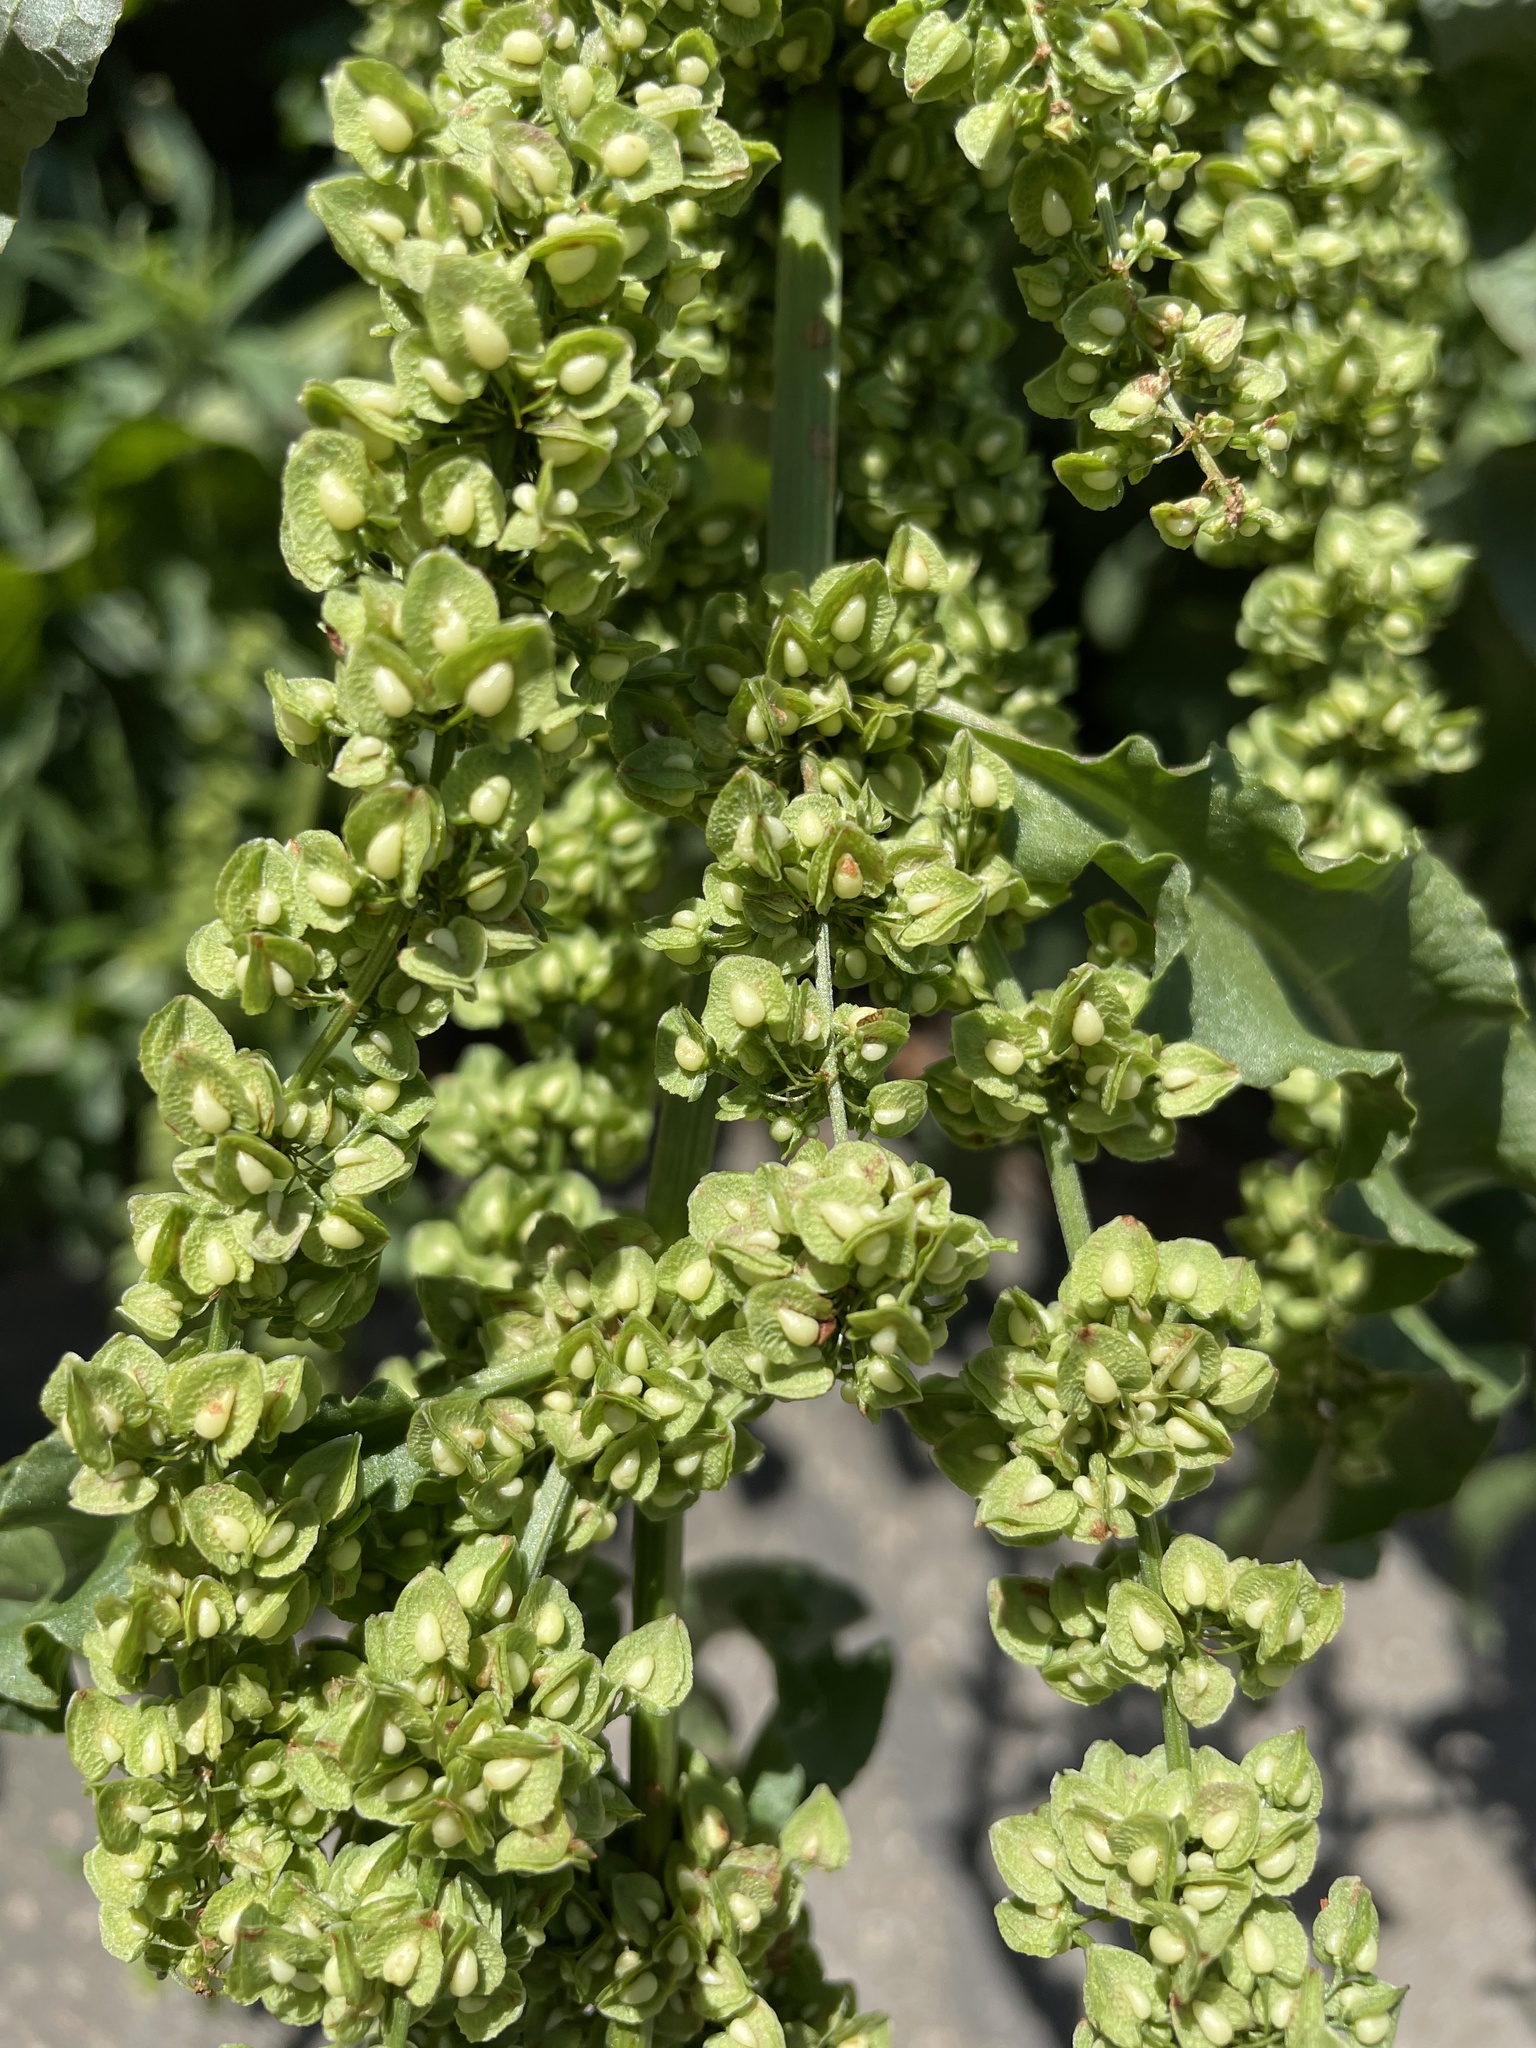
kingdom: Plantae
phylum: Tracheophyta
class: Magnoliopsida
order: Caryophyllales
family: Polygonaceae
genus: Rumex
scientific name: Rumex crispus
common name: Curled dock
